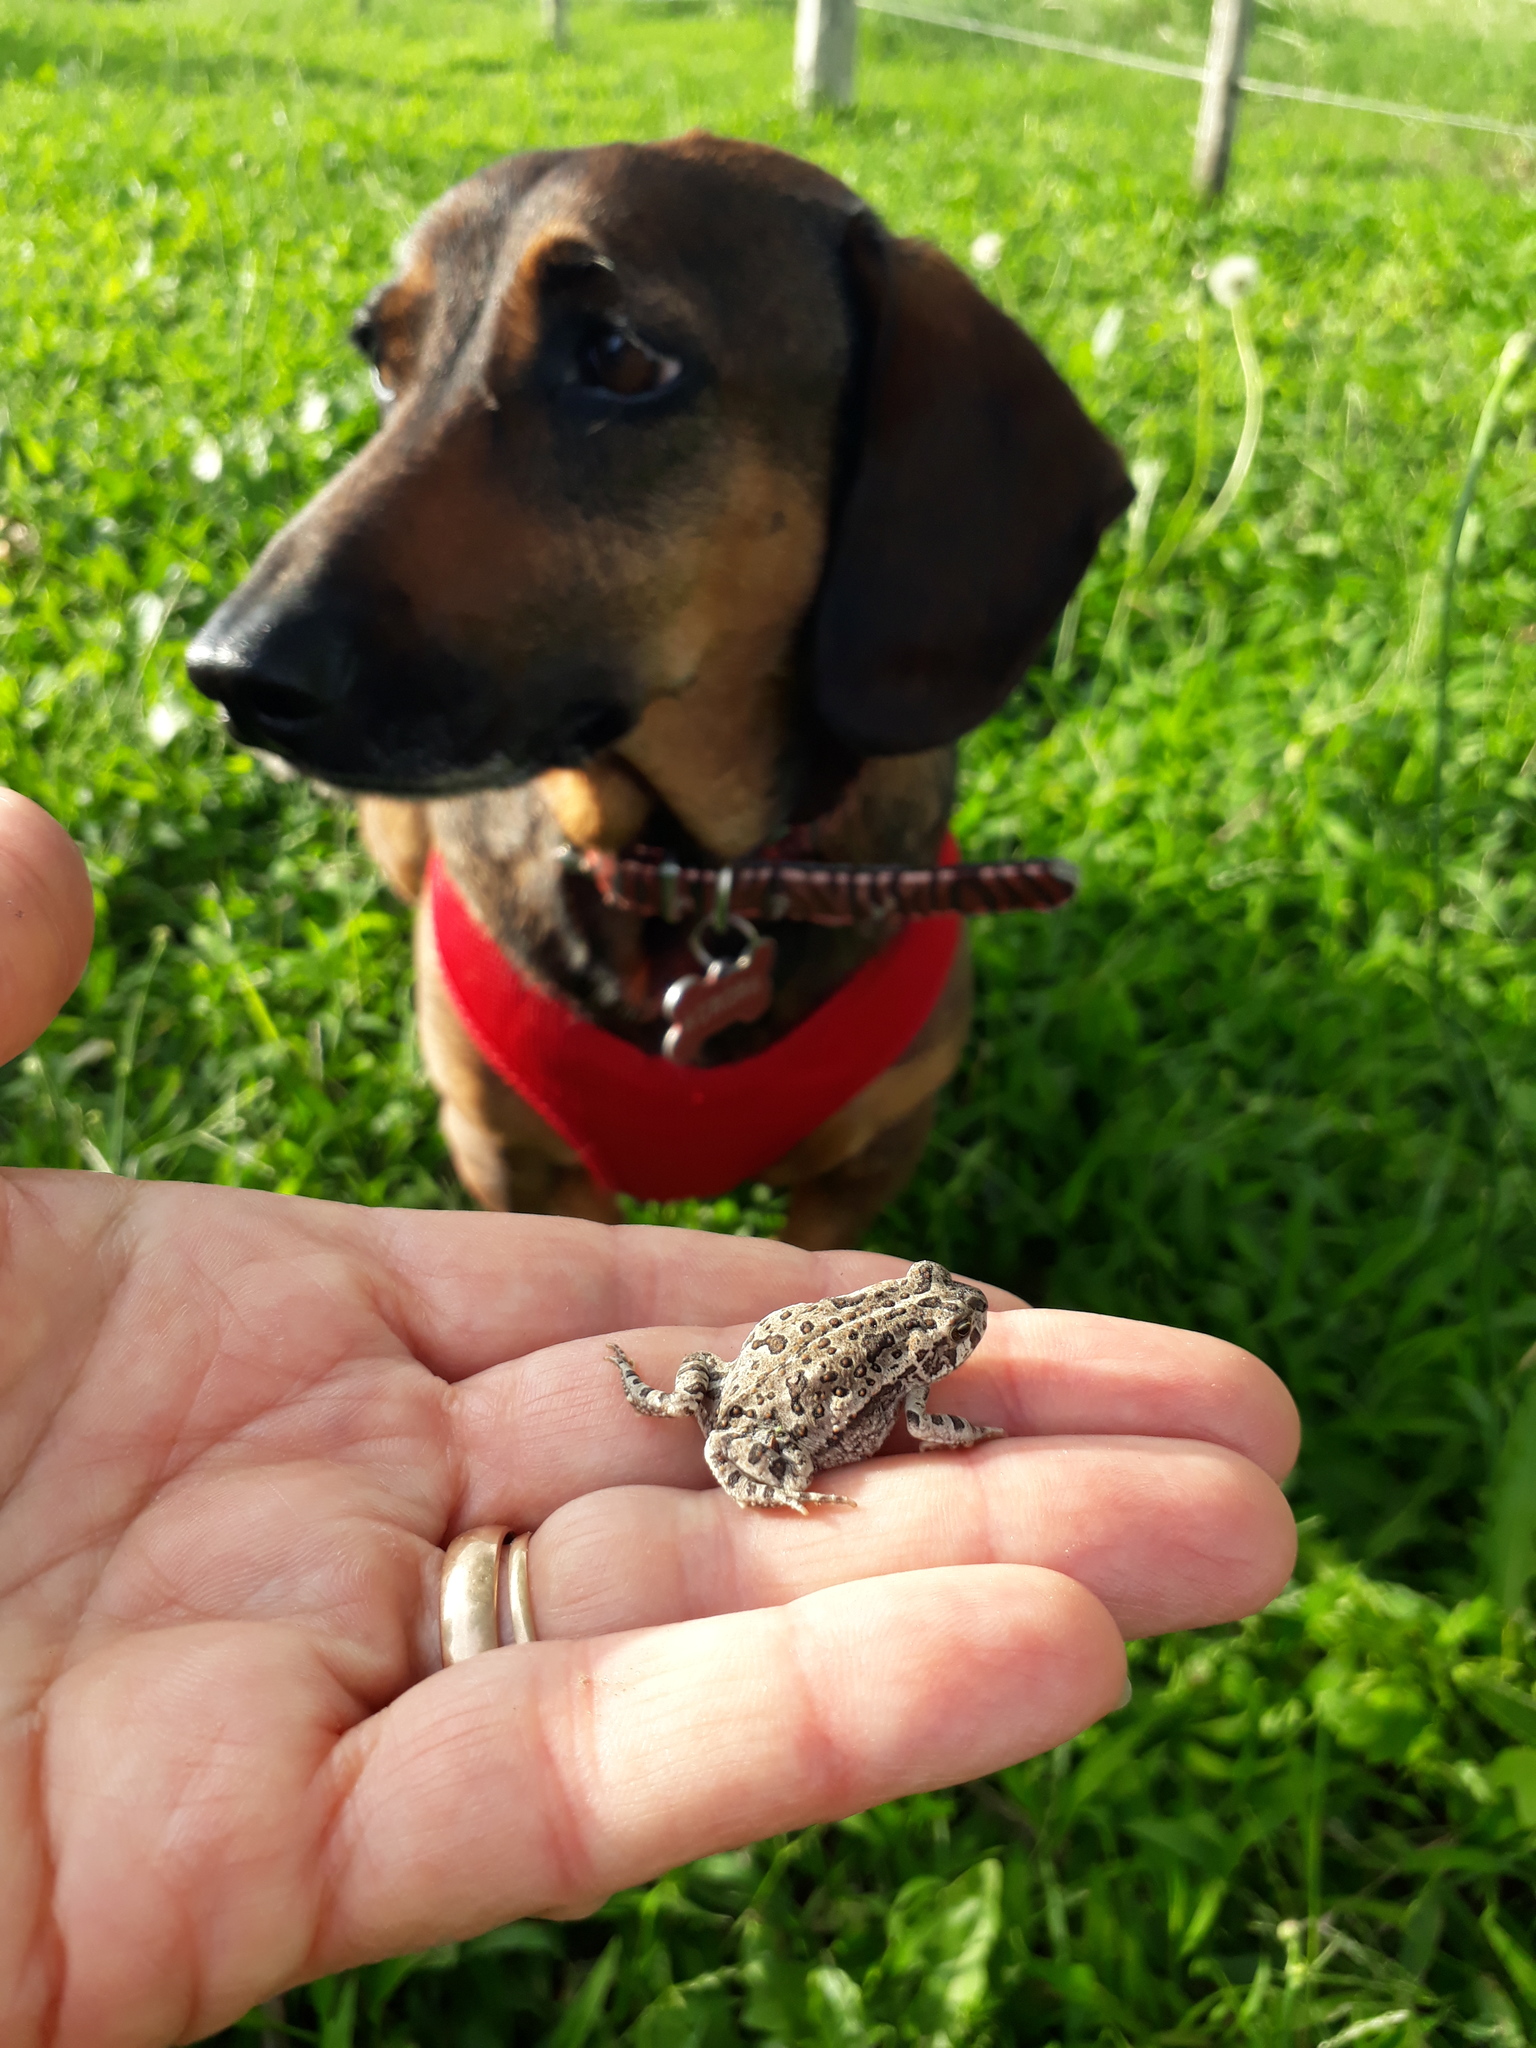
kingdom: Animalia
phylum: Chordata
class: Amphibia
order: Anura
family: Bufonidae
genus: Rhinella
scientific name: Rhinella arenarum
